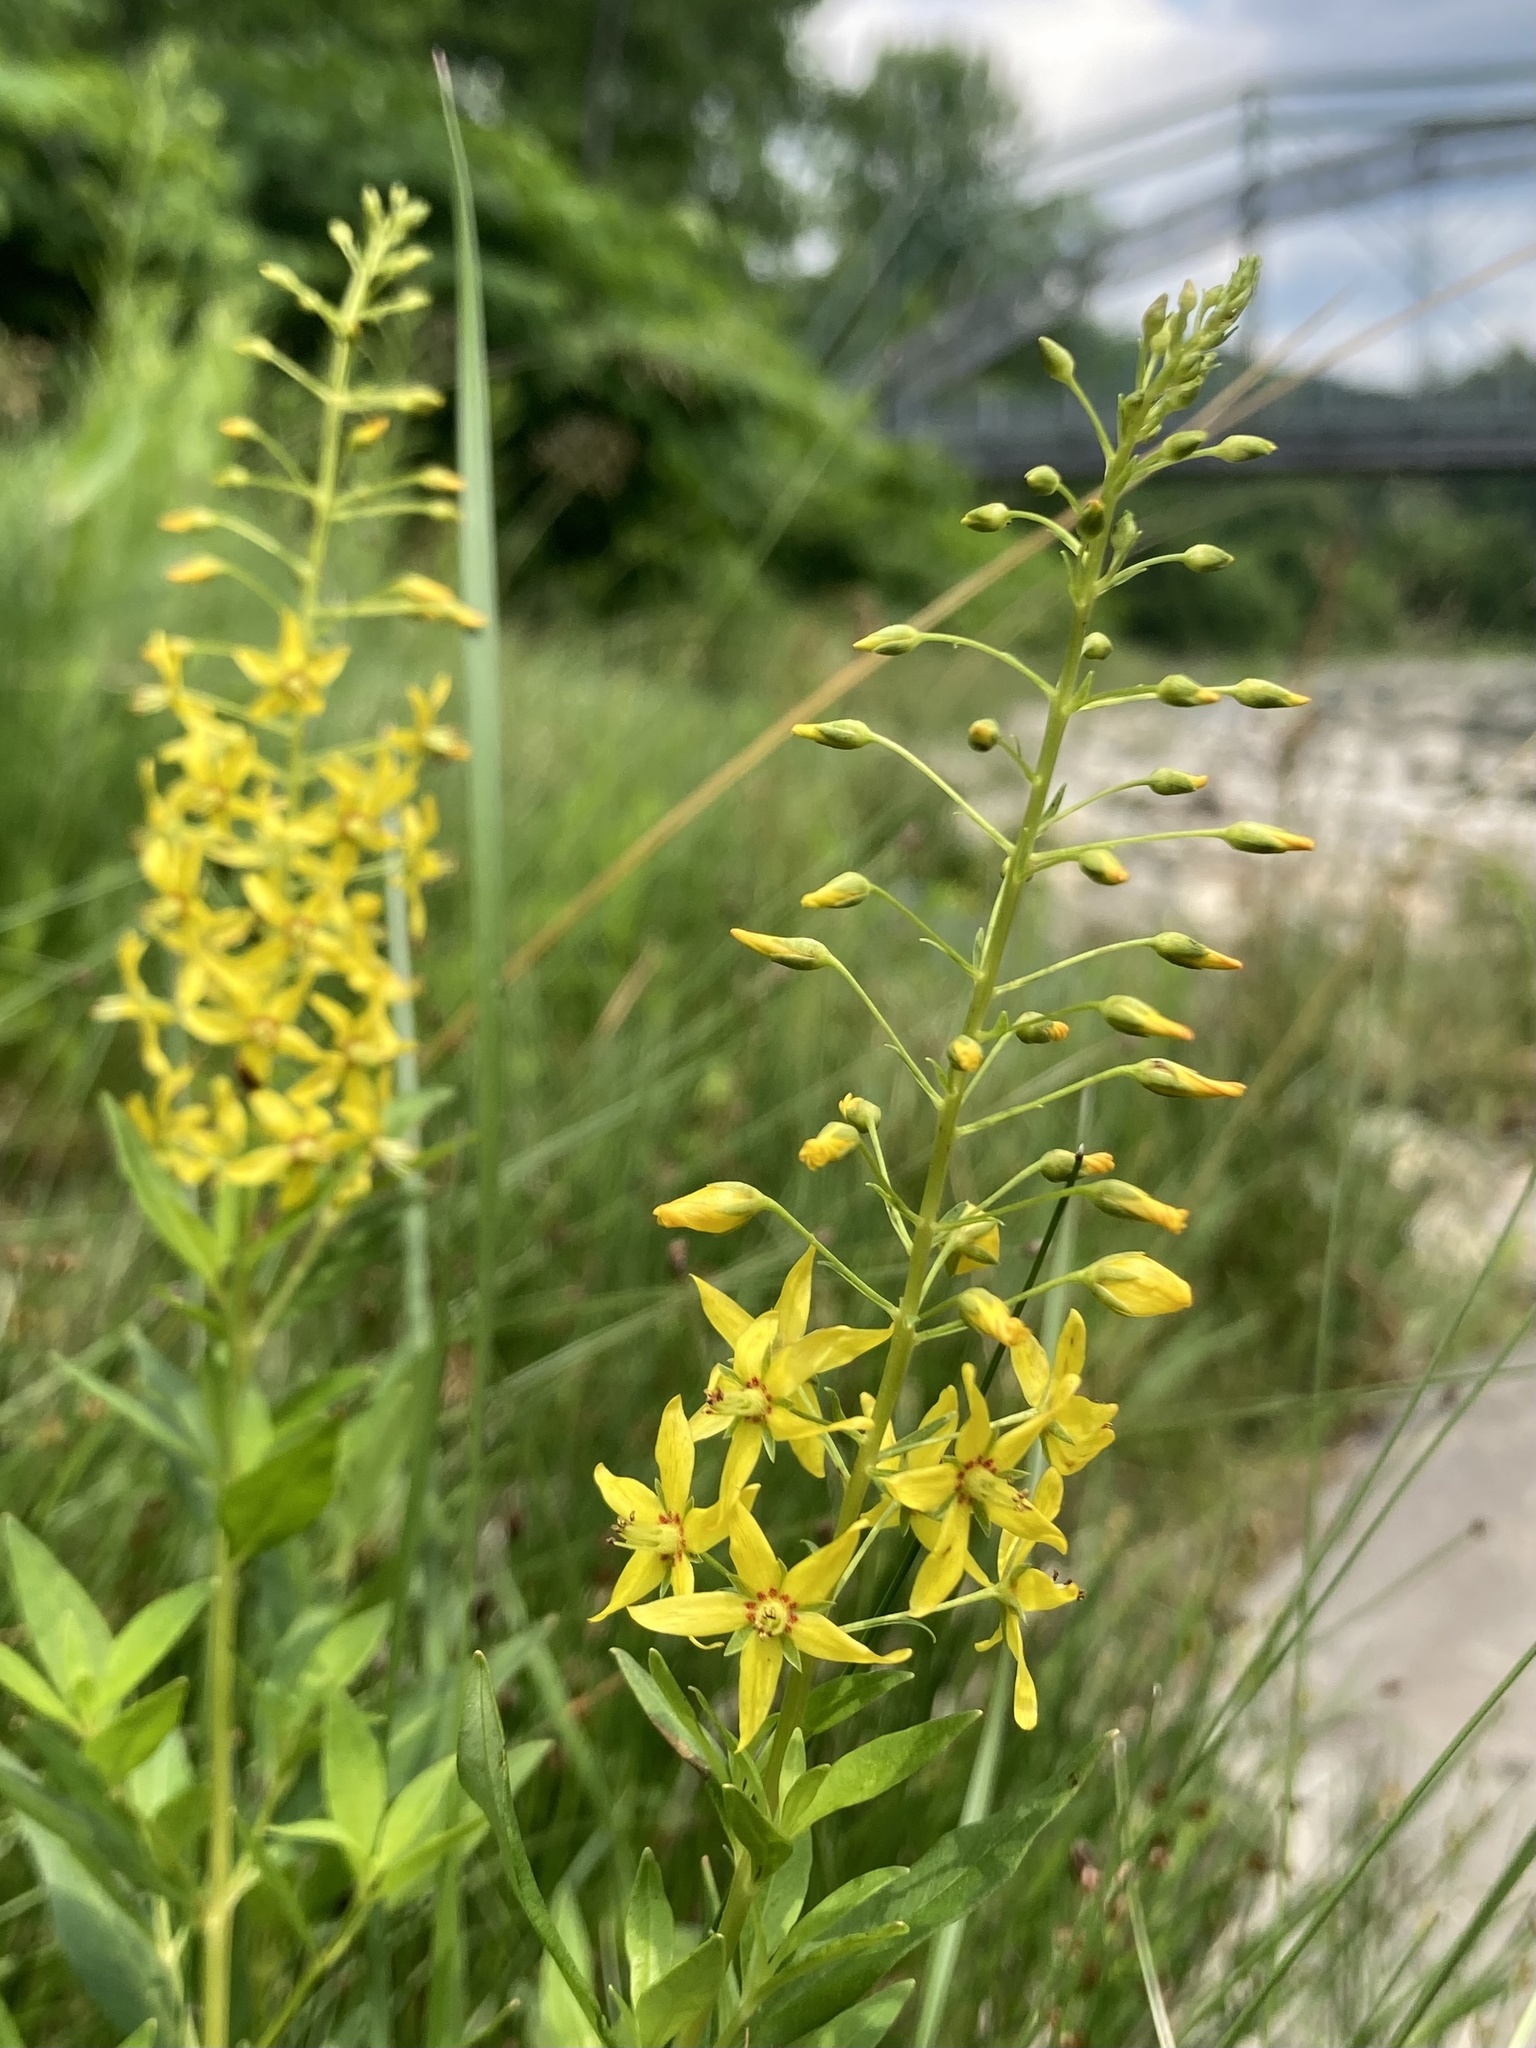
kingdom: Plantae
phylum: Tracheophyta
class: Magnoliopsida
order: Ericales
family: Primulaceae
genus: Lysimachia
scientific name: Lysimachia terrestris
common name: Lake loosestrife
